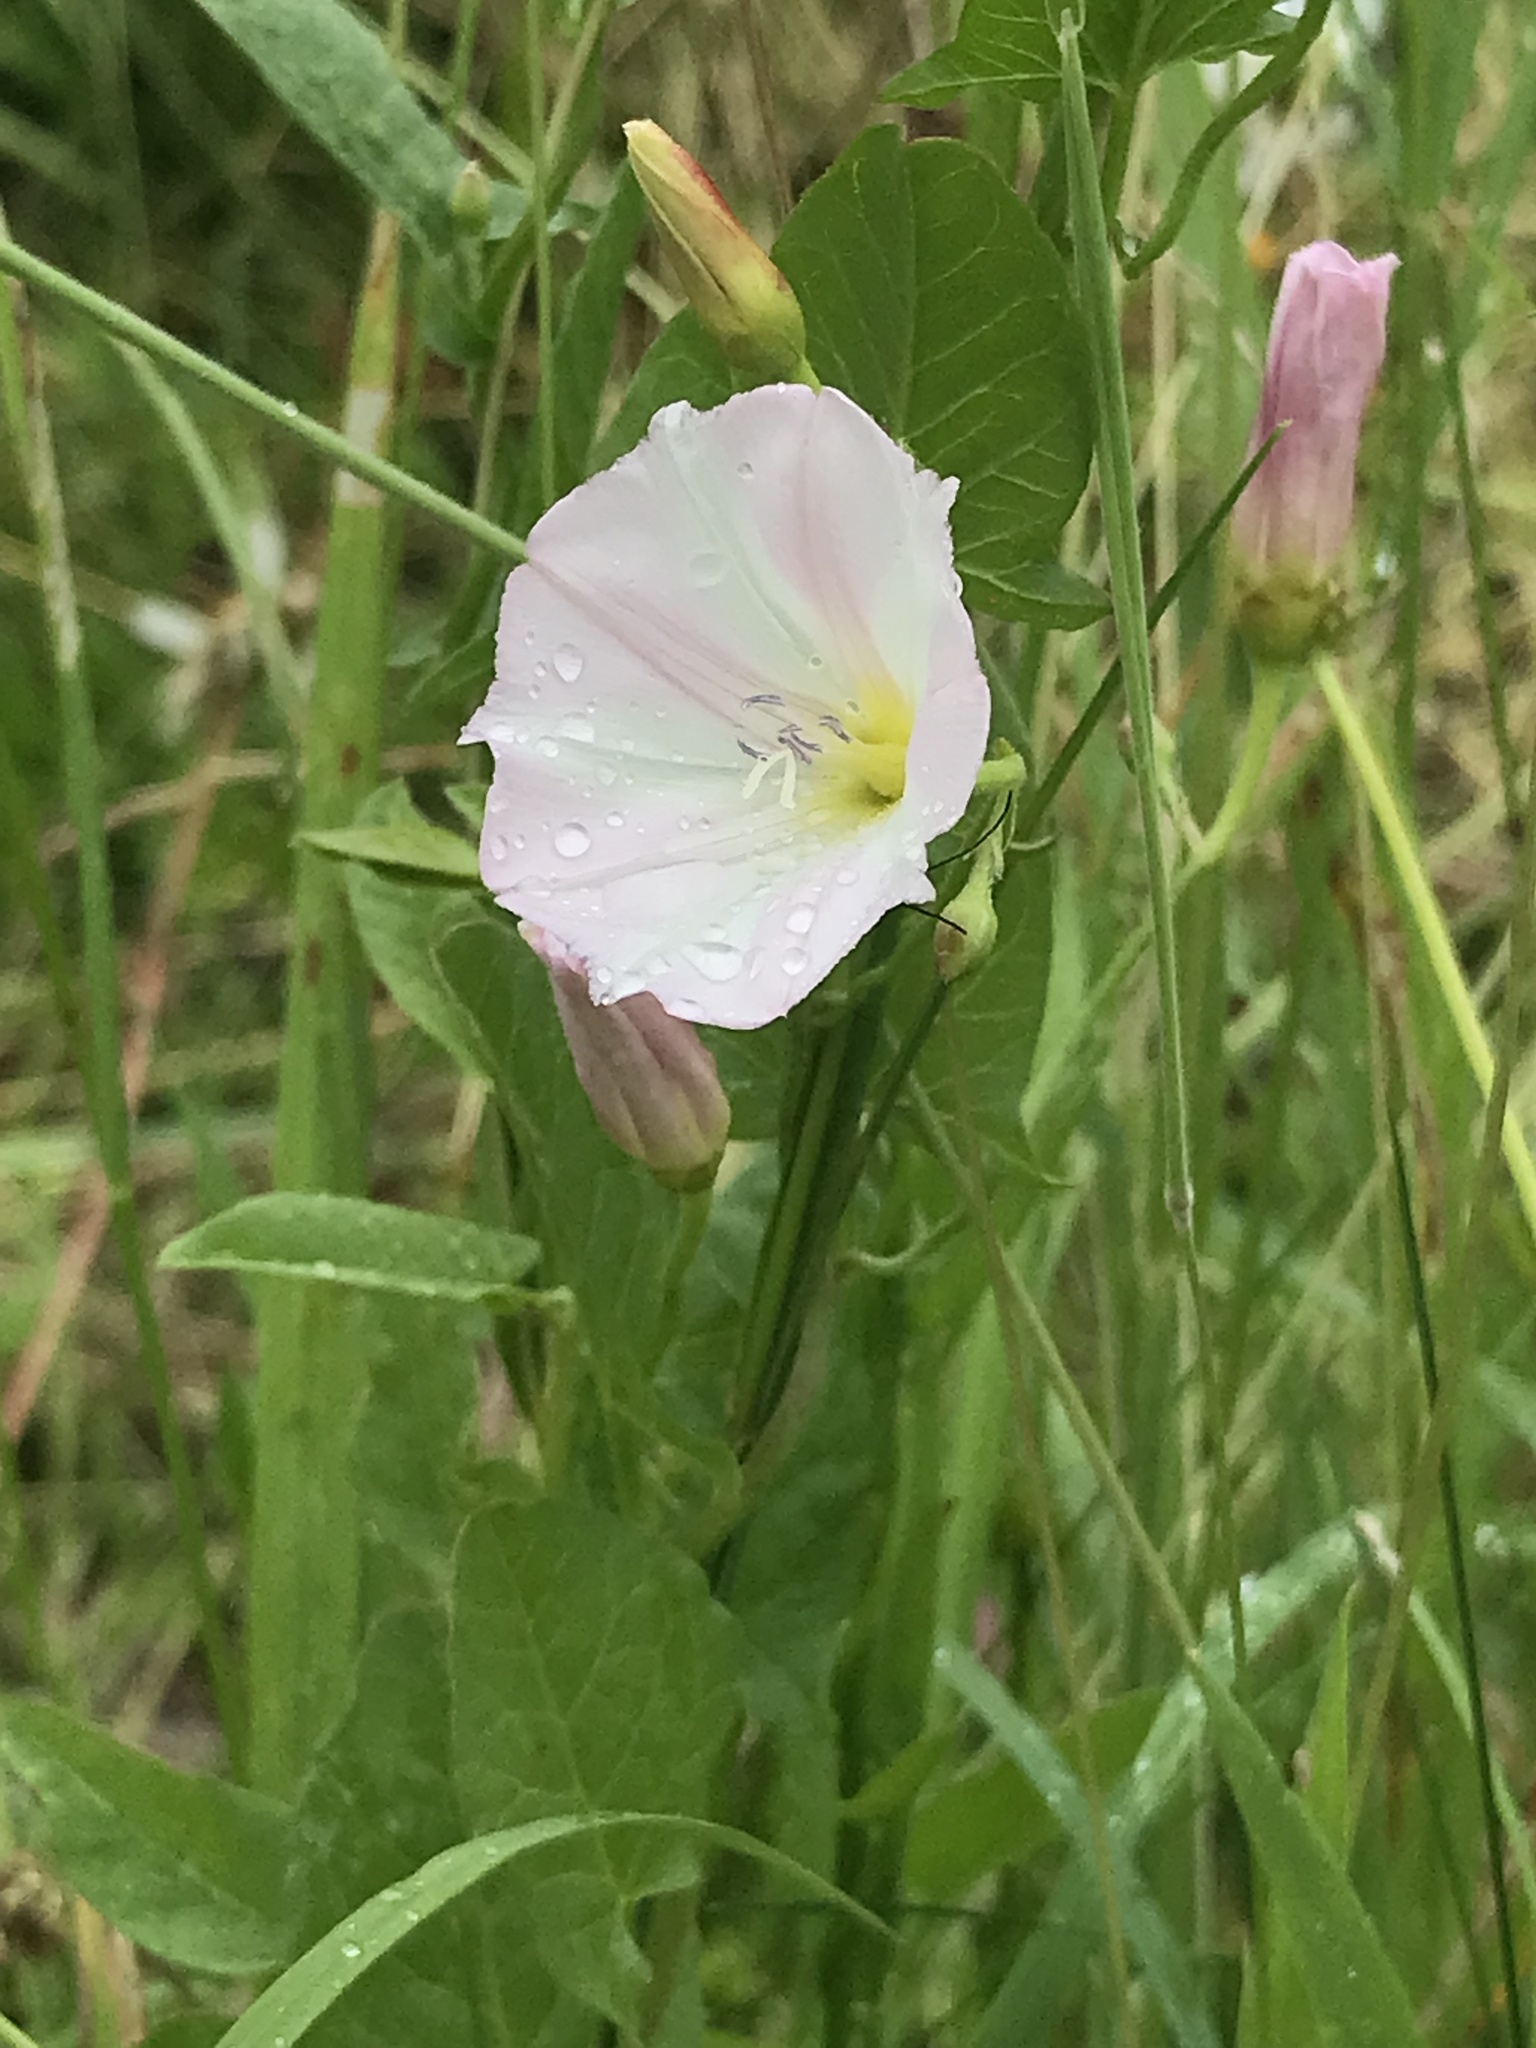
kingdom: Plantae
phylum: Tracheophyta
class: Magnoliopsida
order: Solanales
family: Convolvulaceae
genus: Convolvulus
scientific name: Convolvulus arvensis
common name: Field bindweed
